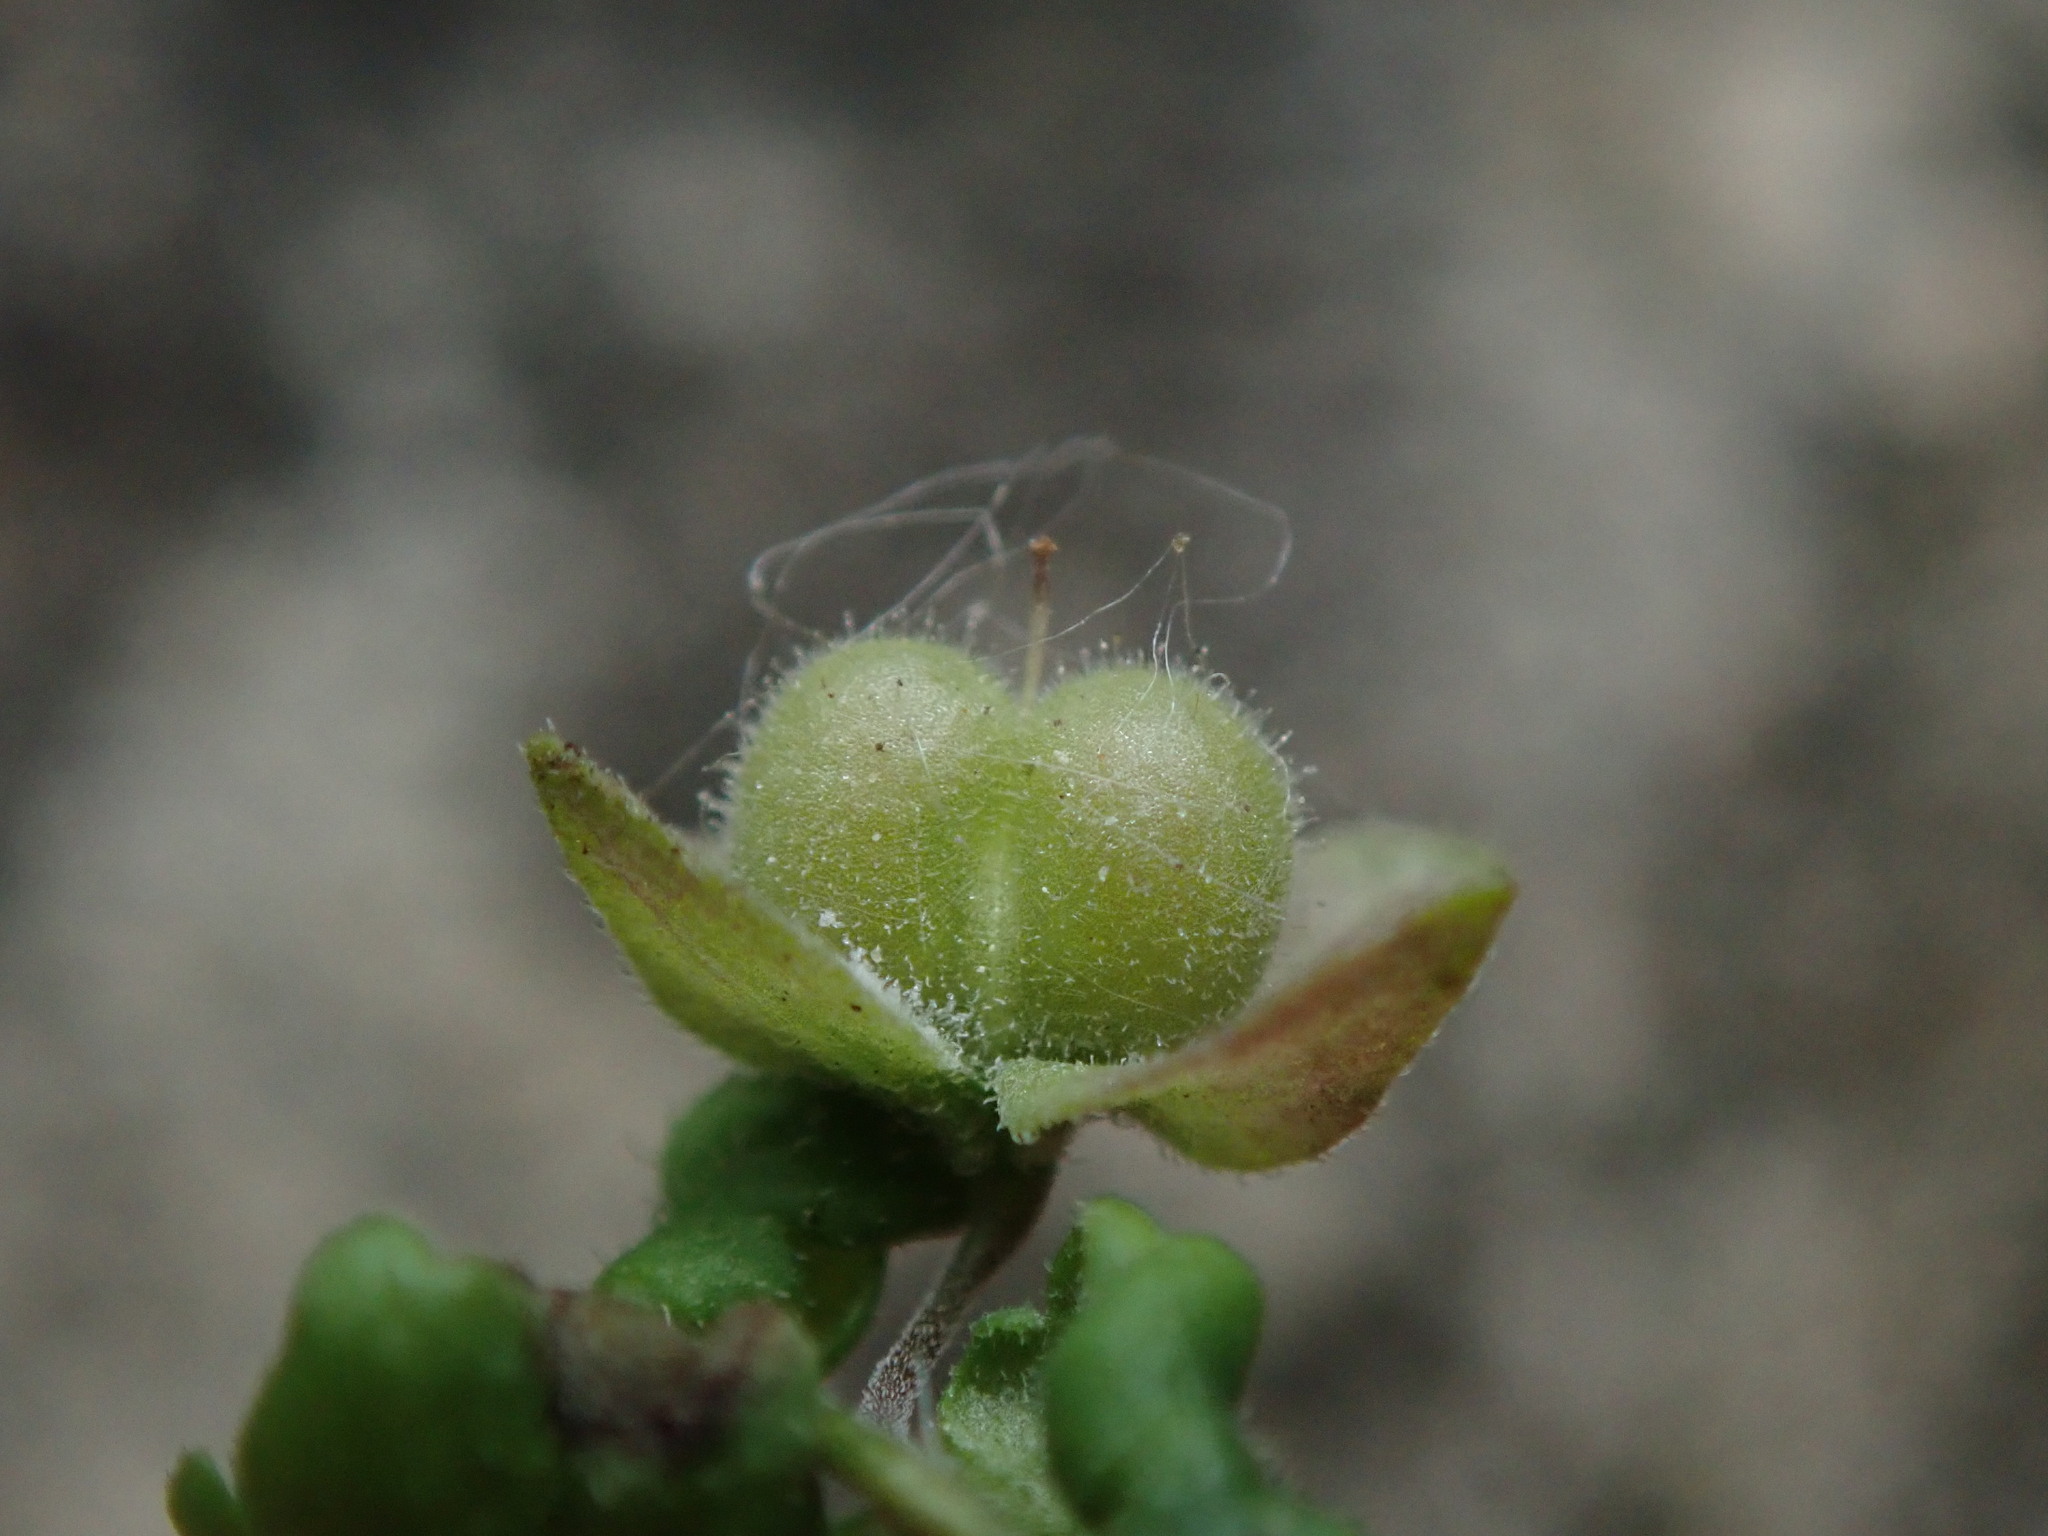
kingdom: Plantae
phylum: Tracheophyta
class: Magnoliopsida
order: Lamiales
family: Plantaginaceae
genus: Veronica
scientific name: Veronica polita
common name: Grey field-speedwell
